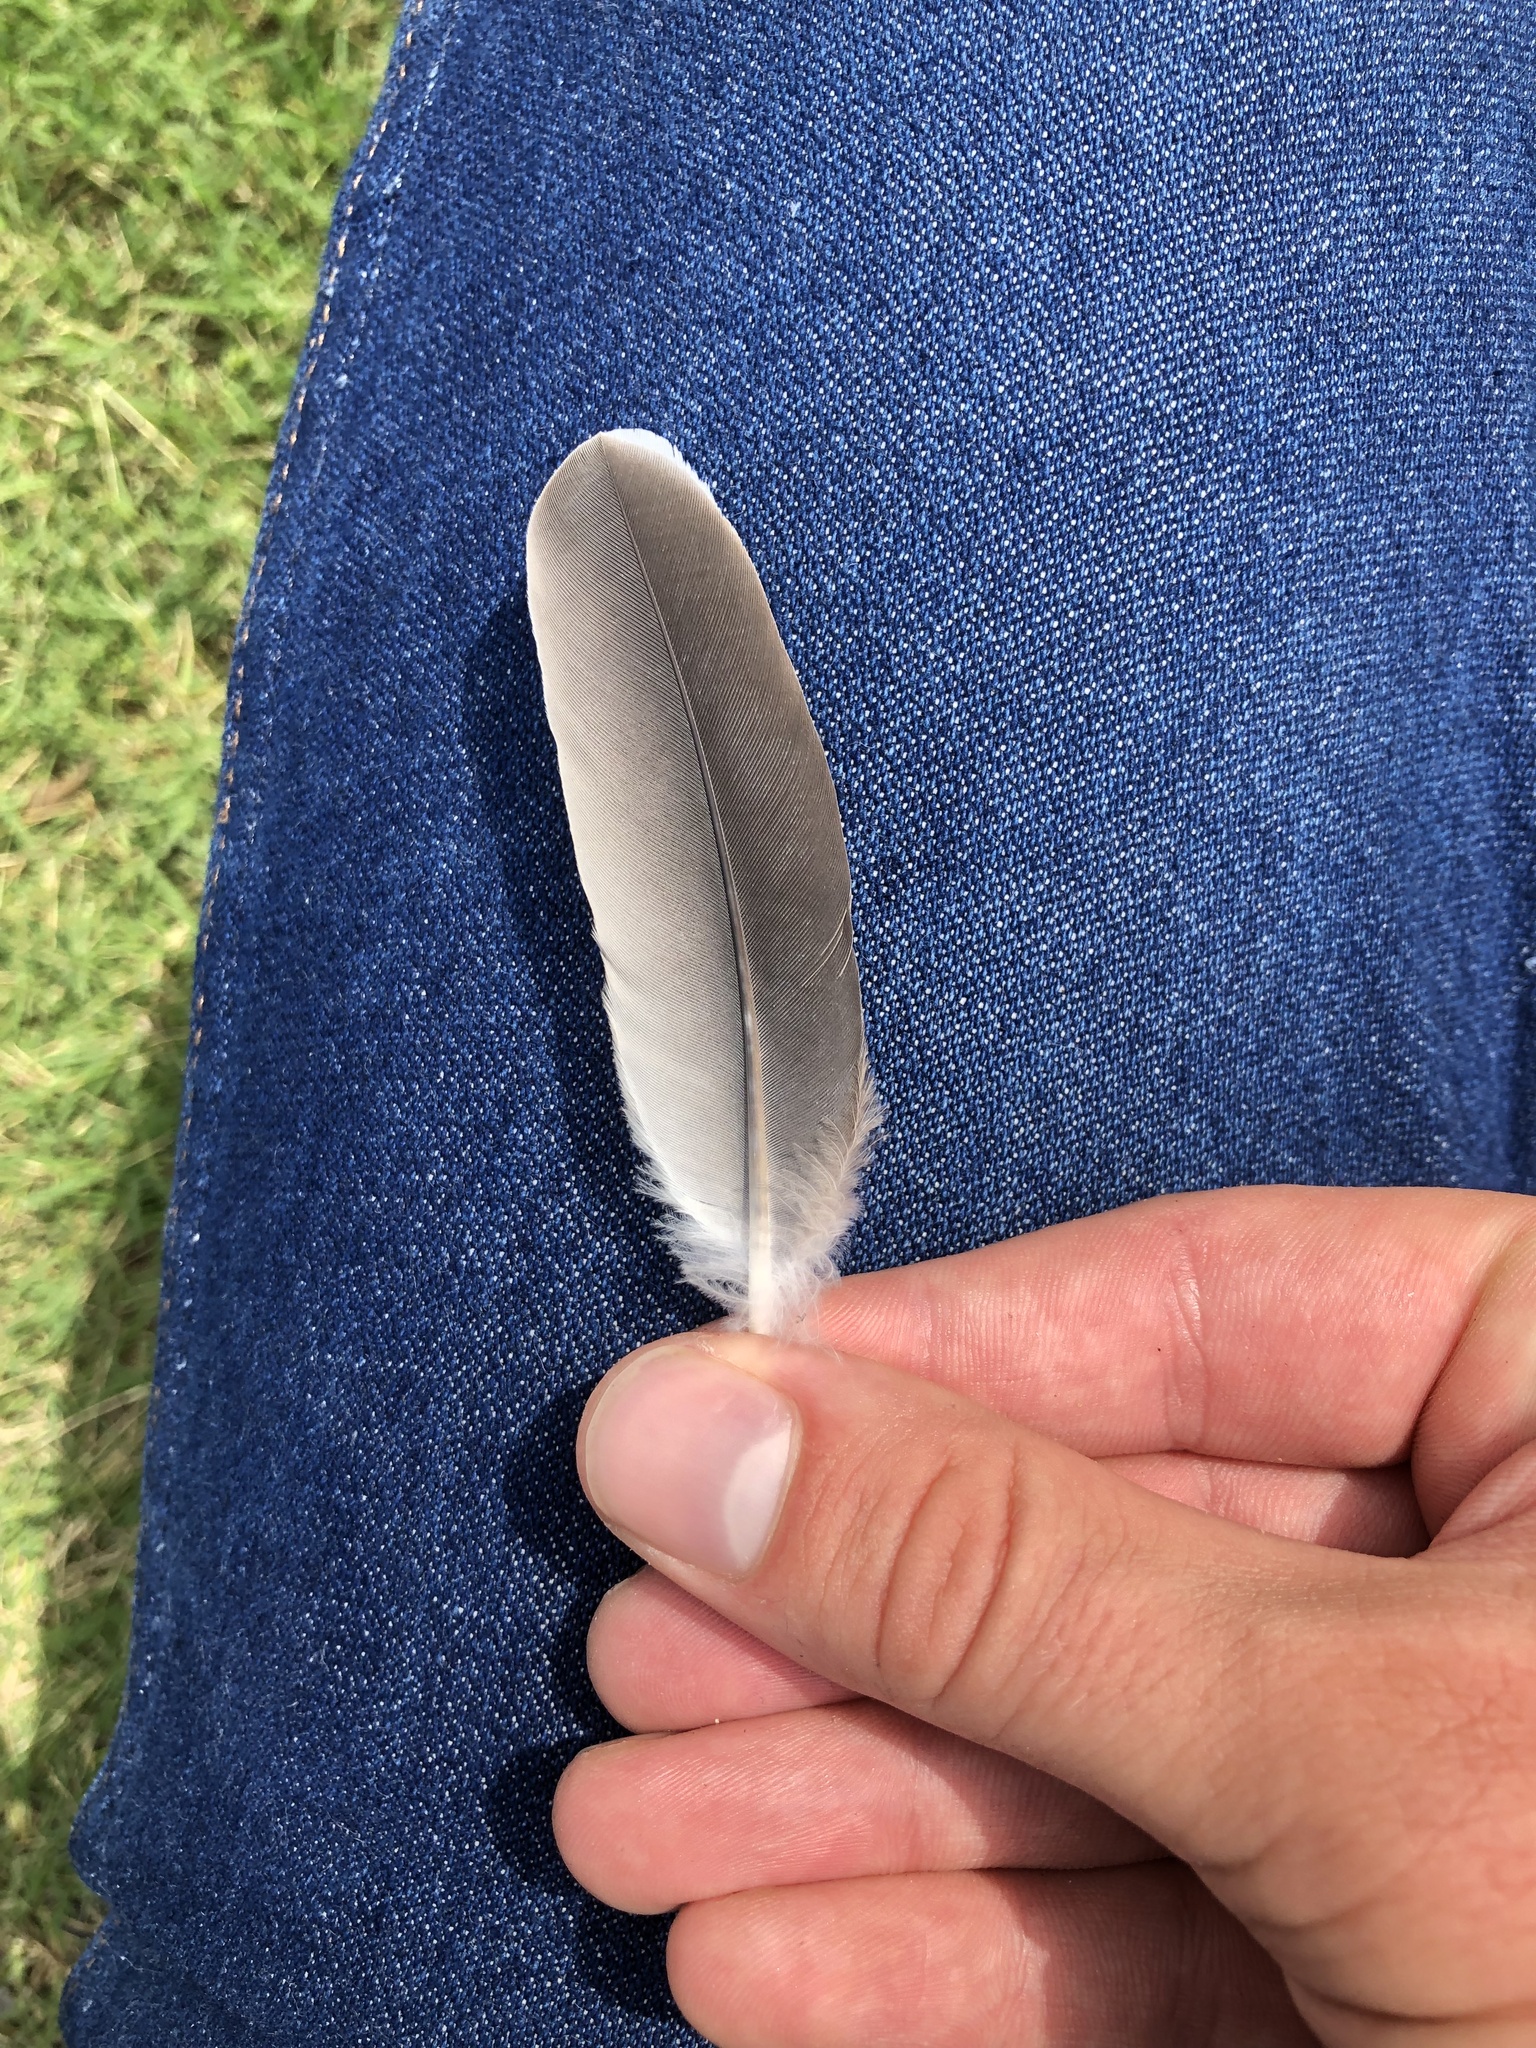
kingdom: Animalia
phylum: Chordata
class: Aves
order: Columbiformes
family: Columbidae
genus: Zenaida
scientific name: Zenaida asiatica
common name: White-winged dove
